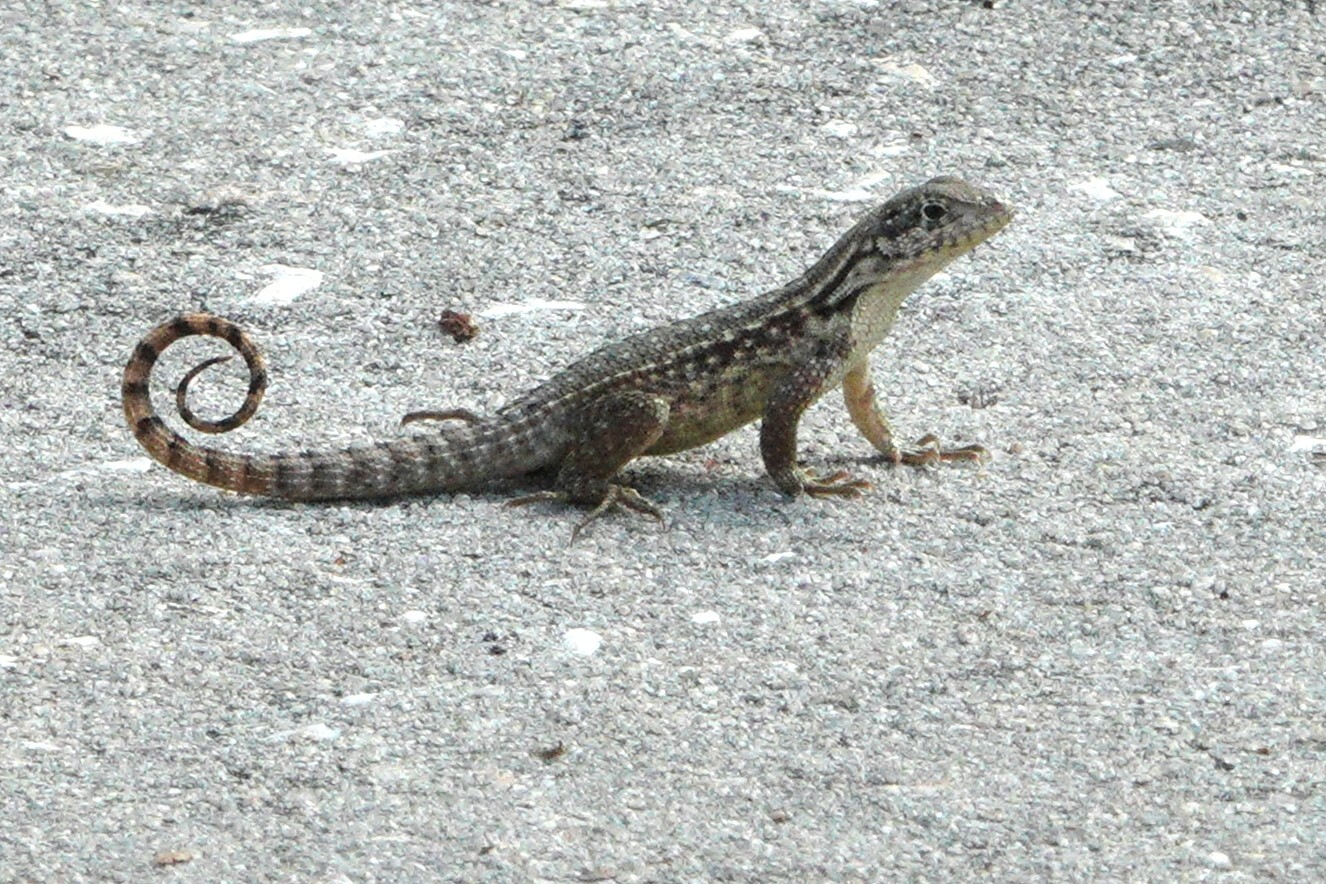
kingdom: Animalia
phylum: Chordata
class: Squamata
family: Leiocephalidae
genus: Leiocephalus
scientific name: Leiocephalus carinatus
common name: Northern curly-tailed lizard
